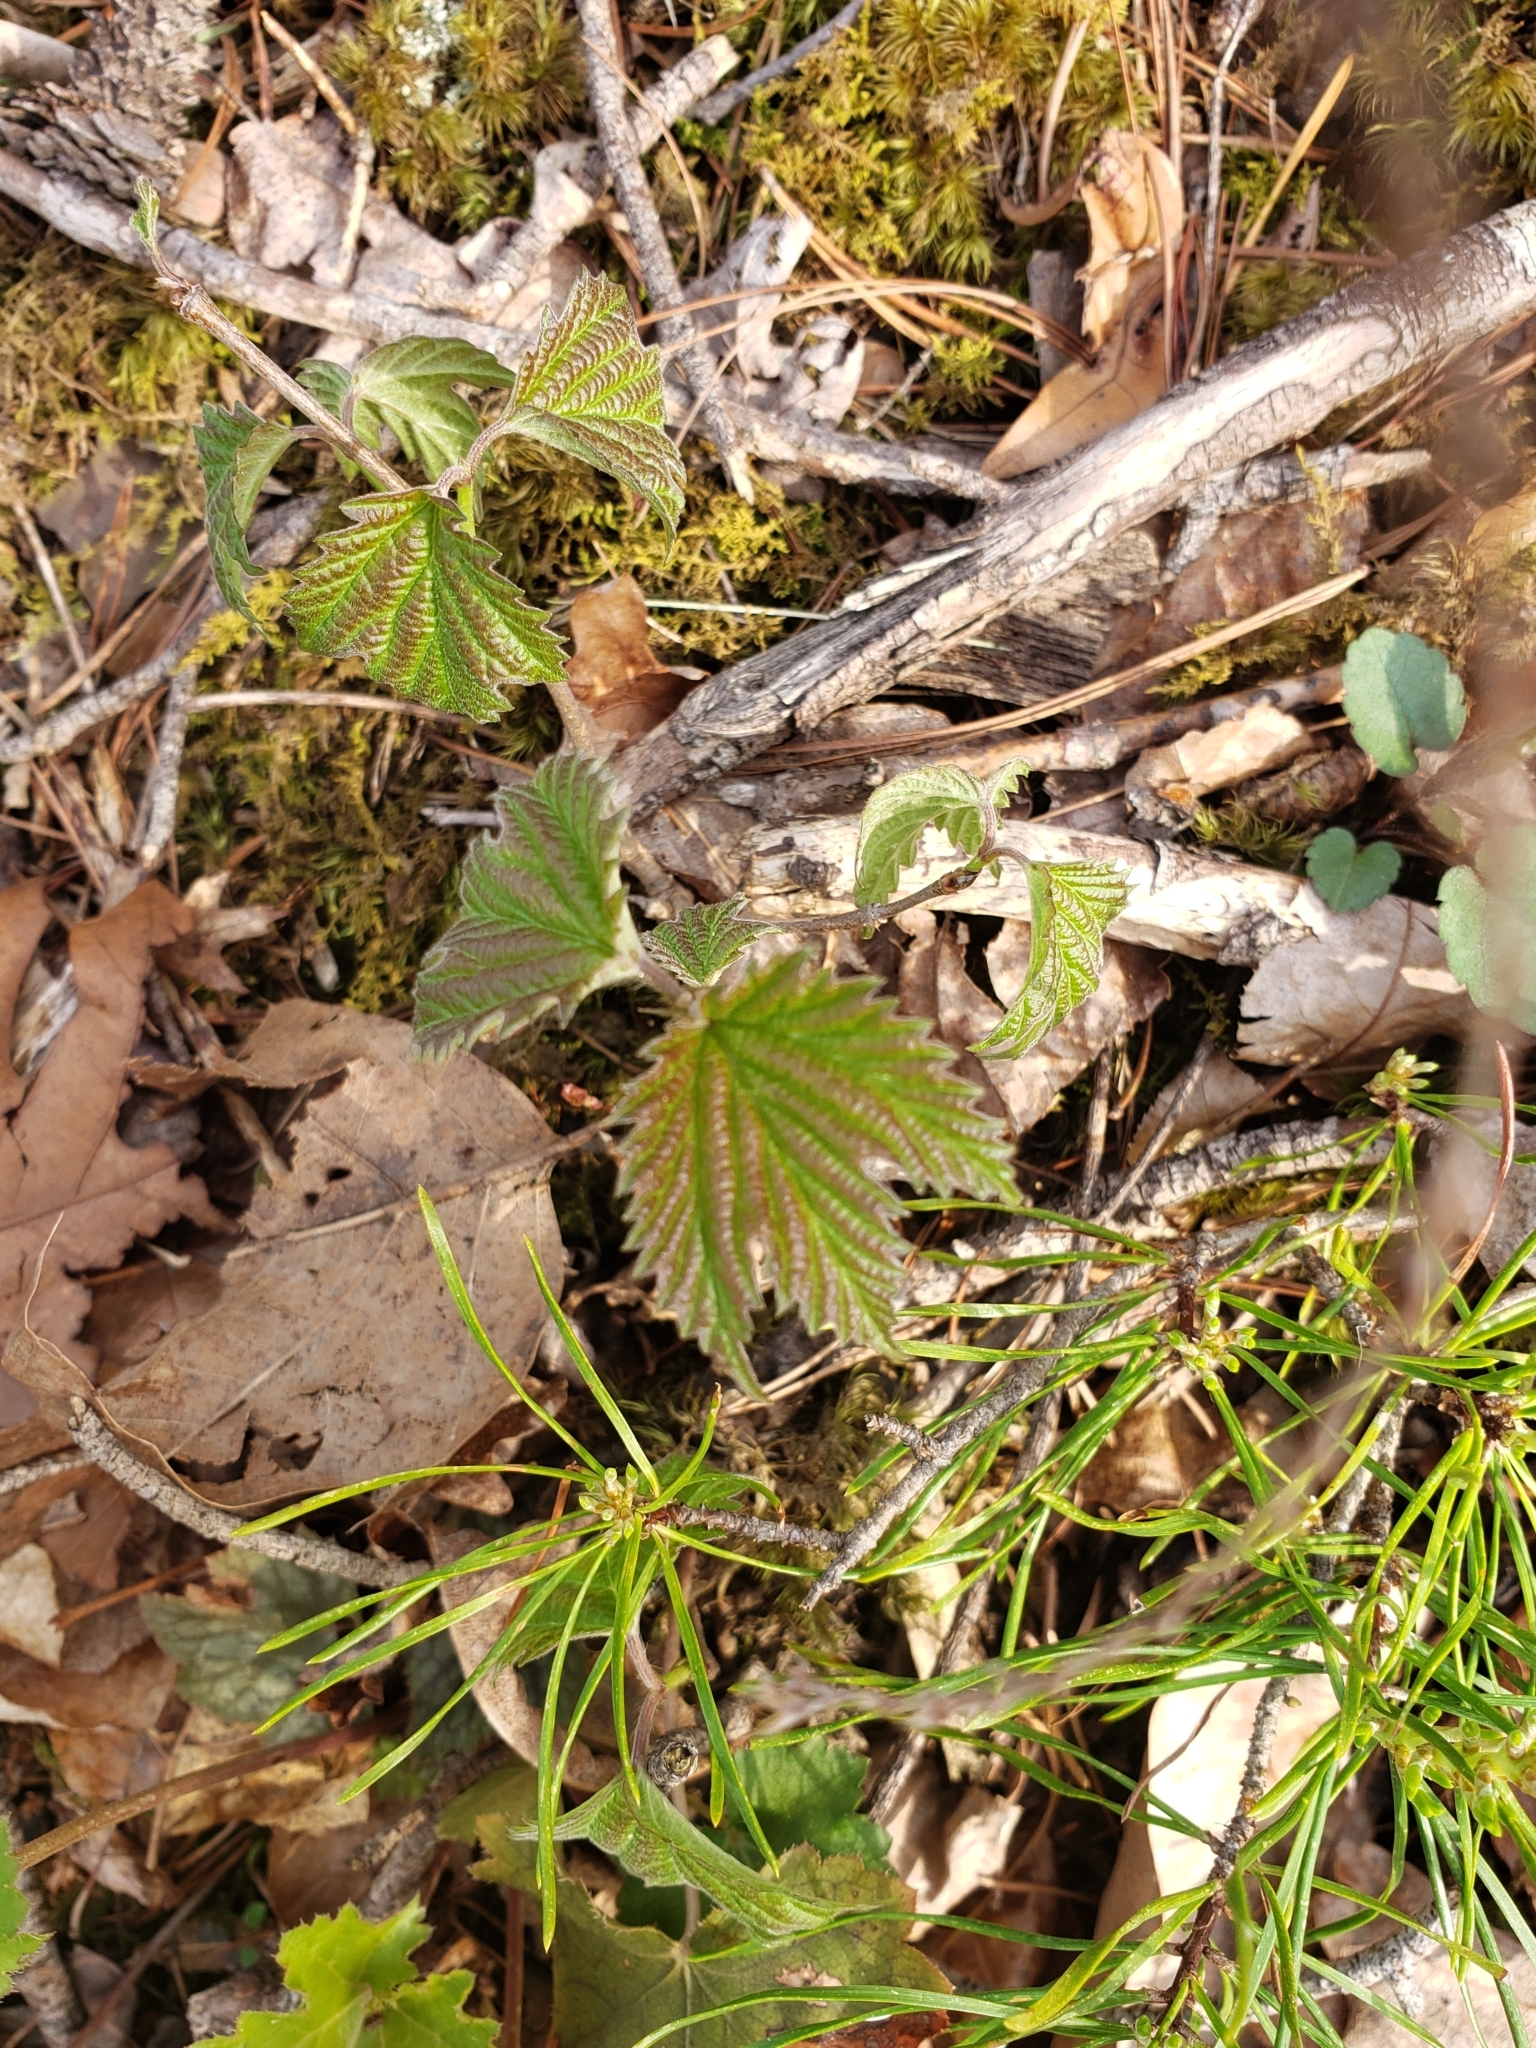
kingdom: Plantae
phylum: Tracheophyta
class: Magnoliopsida
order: Dipsacales
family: Viburnaceae
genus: Viburnum
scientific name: Viburnum acerifolium
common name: Dockmackie
